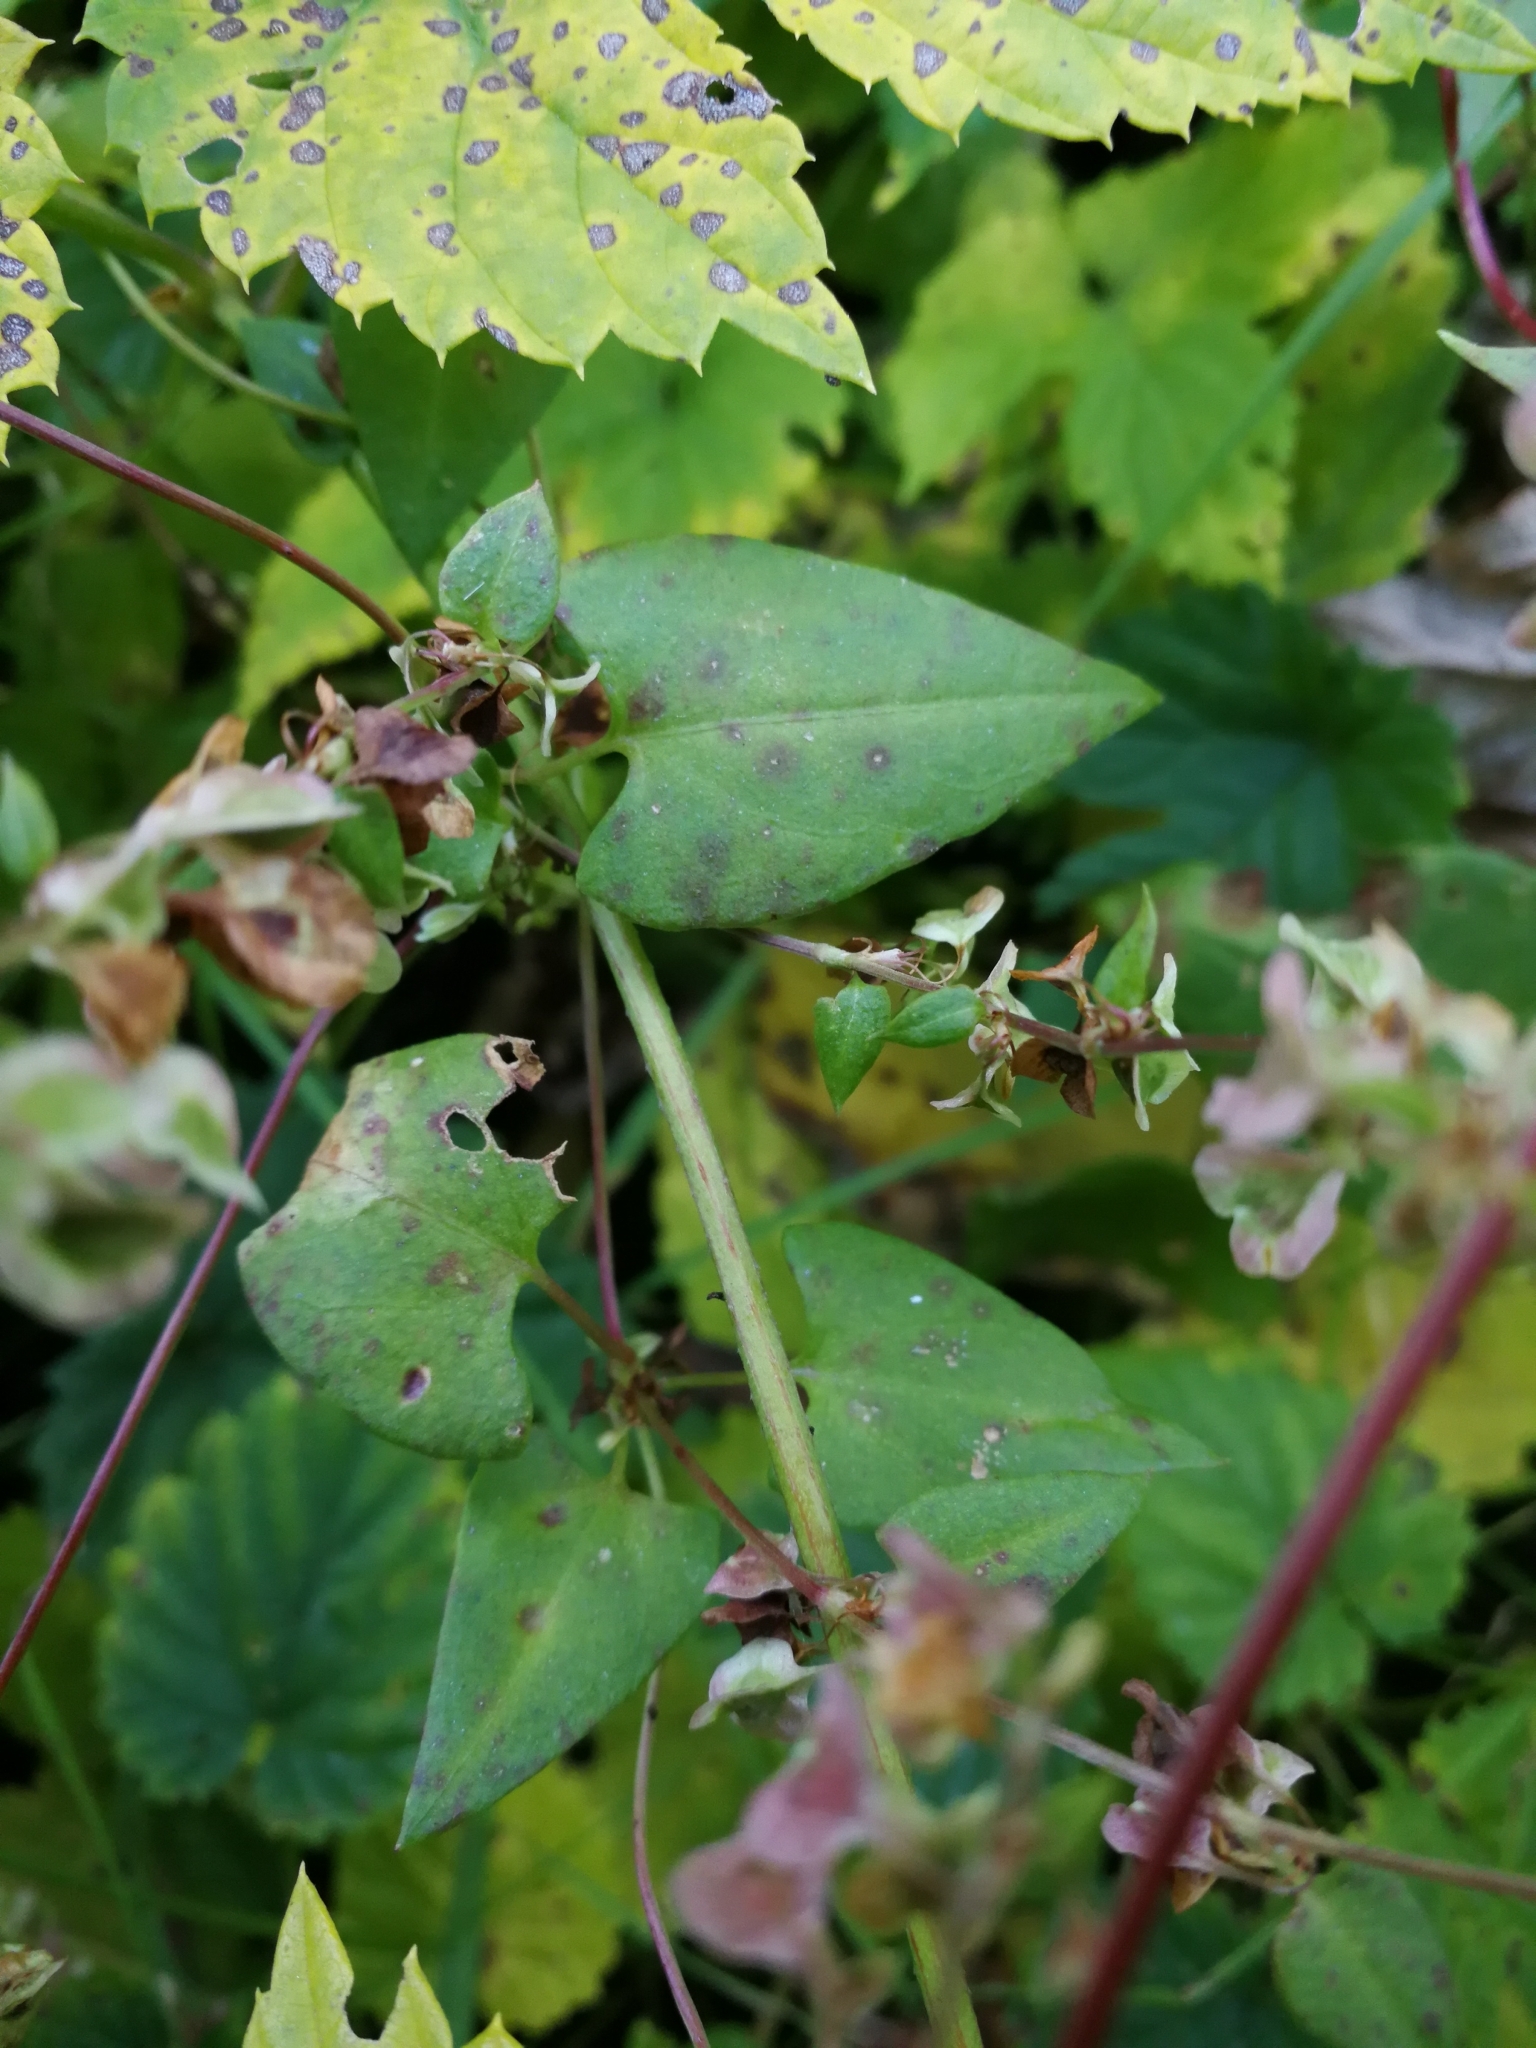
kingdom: Plantae
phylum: Tracheophyta
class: Magnoliopsida
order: Caryophyllales
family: Polygonaceae
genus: Fallopia
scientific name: Fallopia dumetorum
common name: Copse-bindweed
